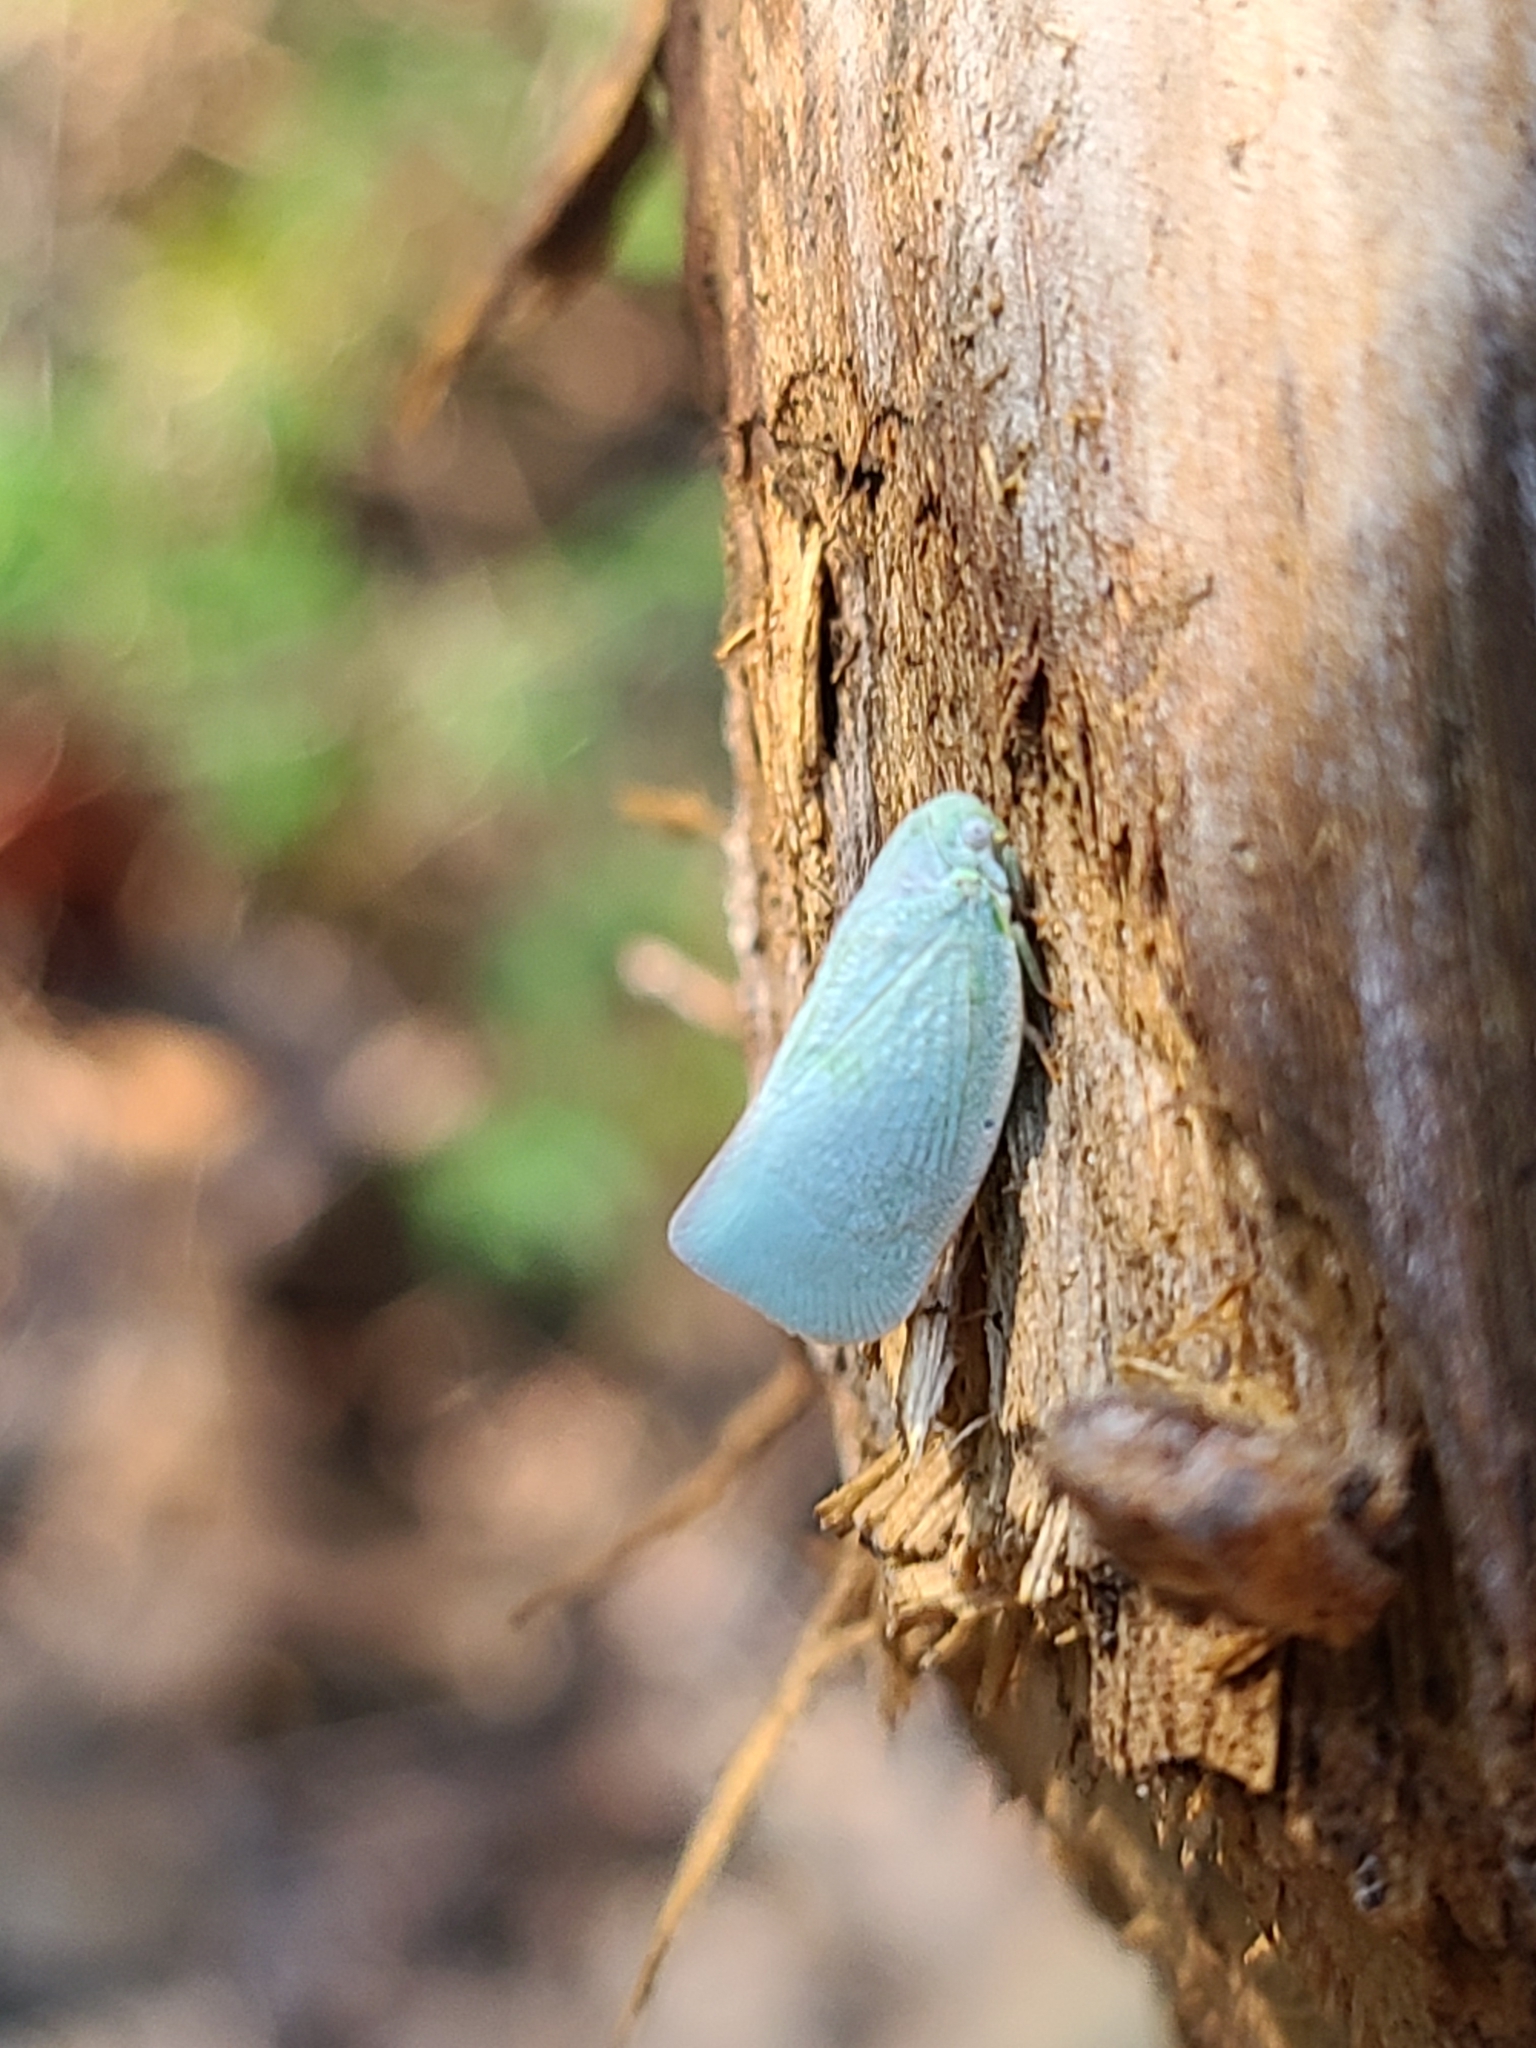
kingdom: Animalia
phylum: Arthropoda
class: Insecta
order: Hemiptera
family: Flatidae
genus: Flatormenis
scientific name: Flatormenis proxima
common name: Northern flatid planthopper
